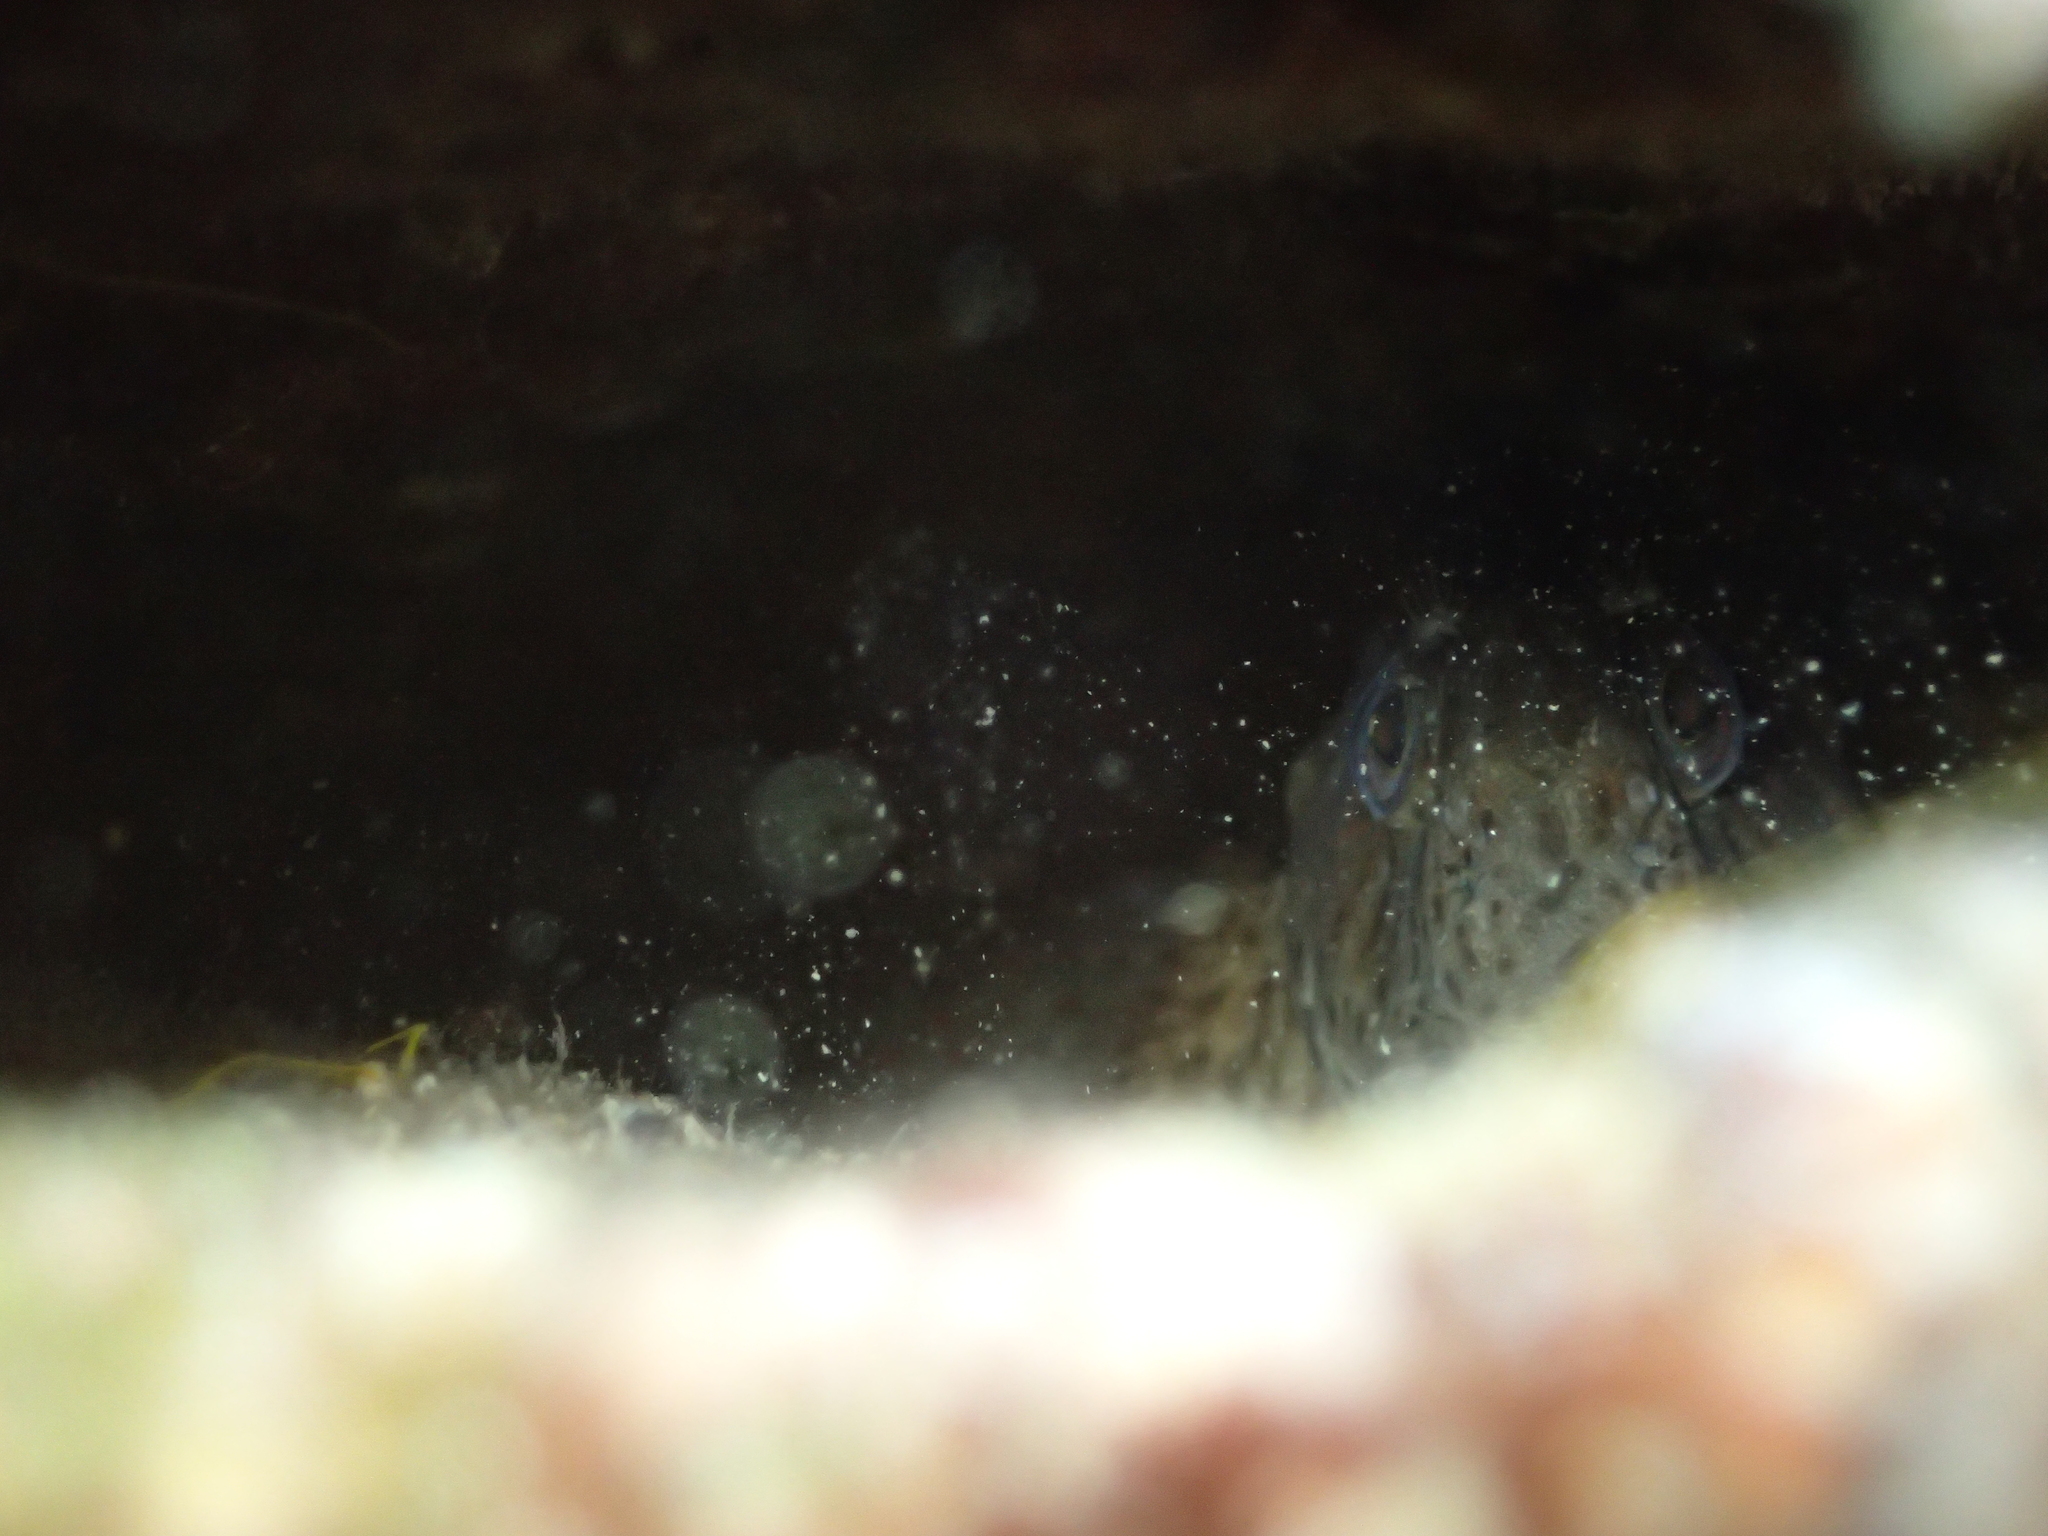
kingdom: Animalia
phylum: Chordata
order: Perciformes
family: Blenniidae
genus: Parablennius
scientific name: Parablennius sanguinolentus
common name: Black sea blenny
